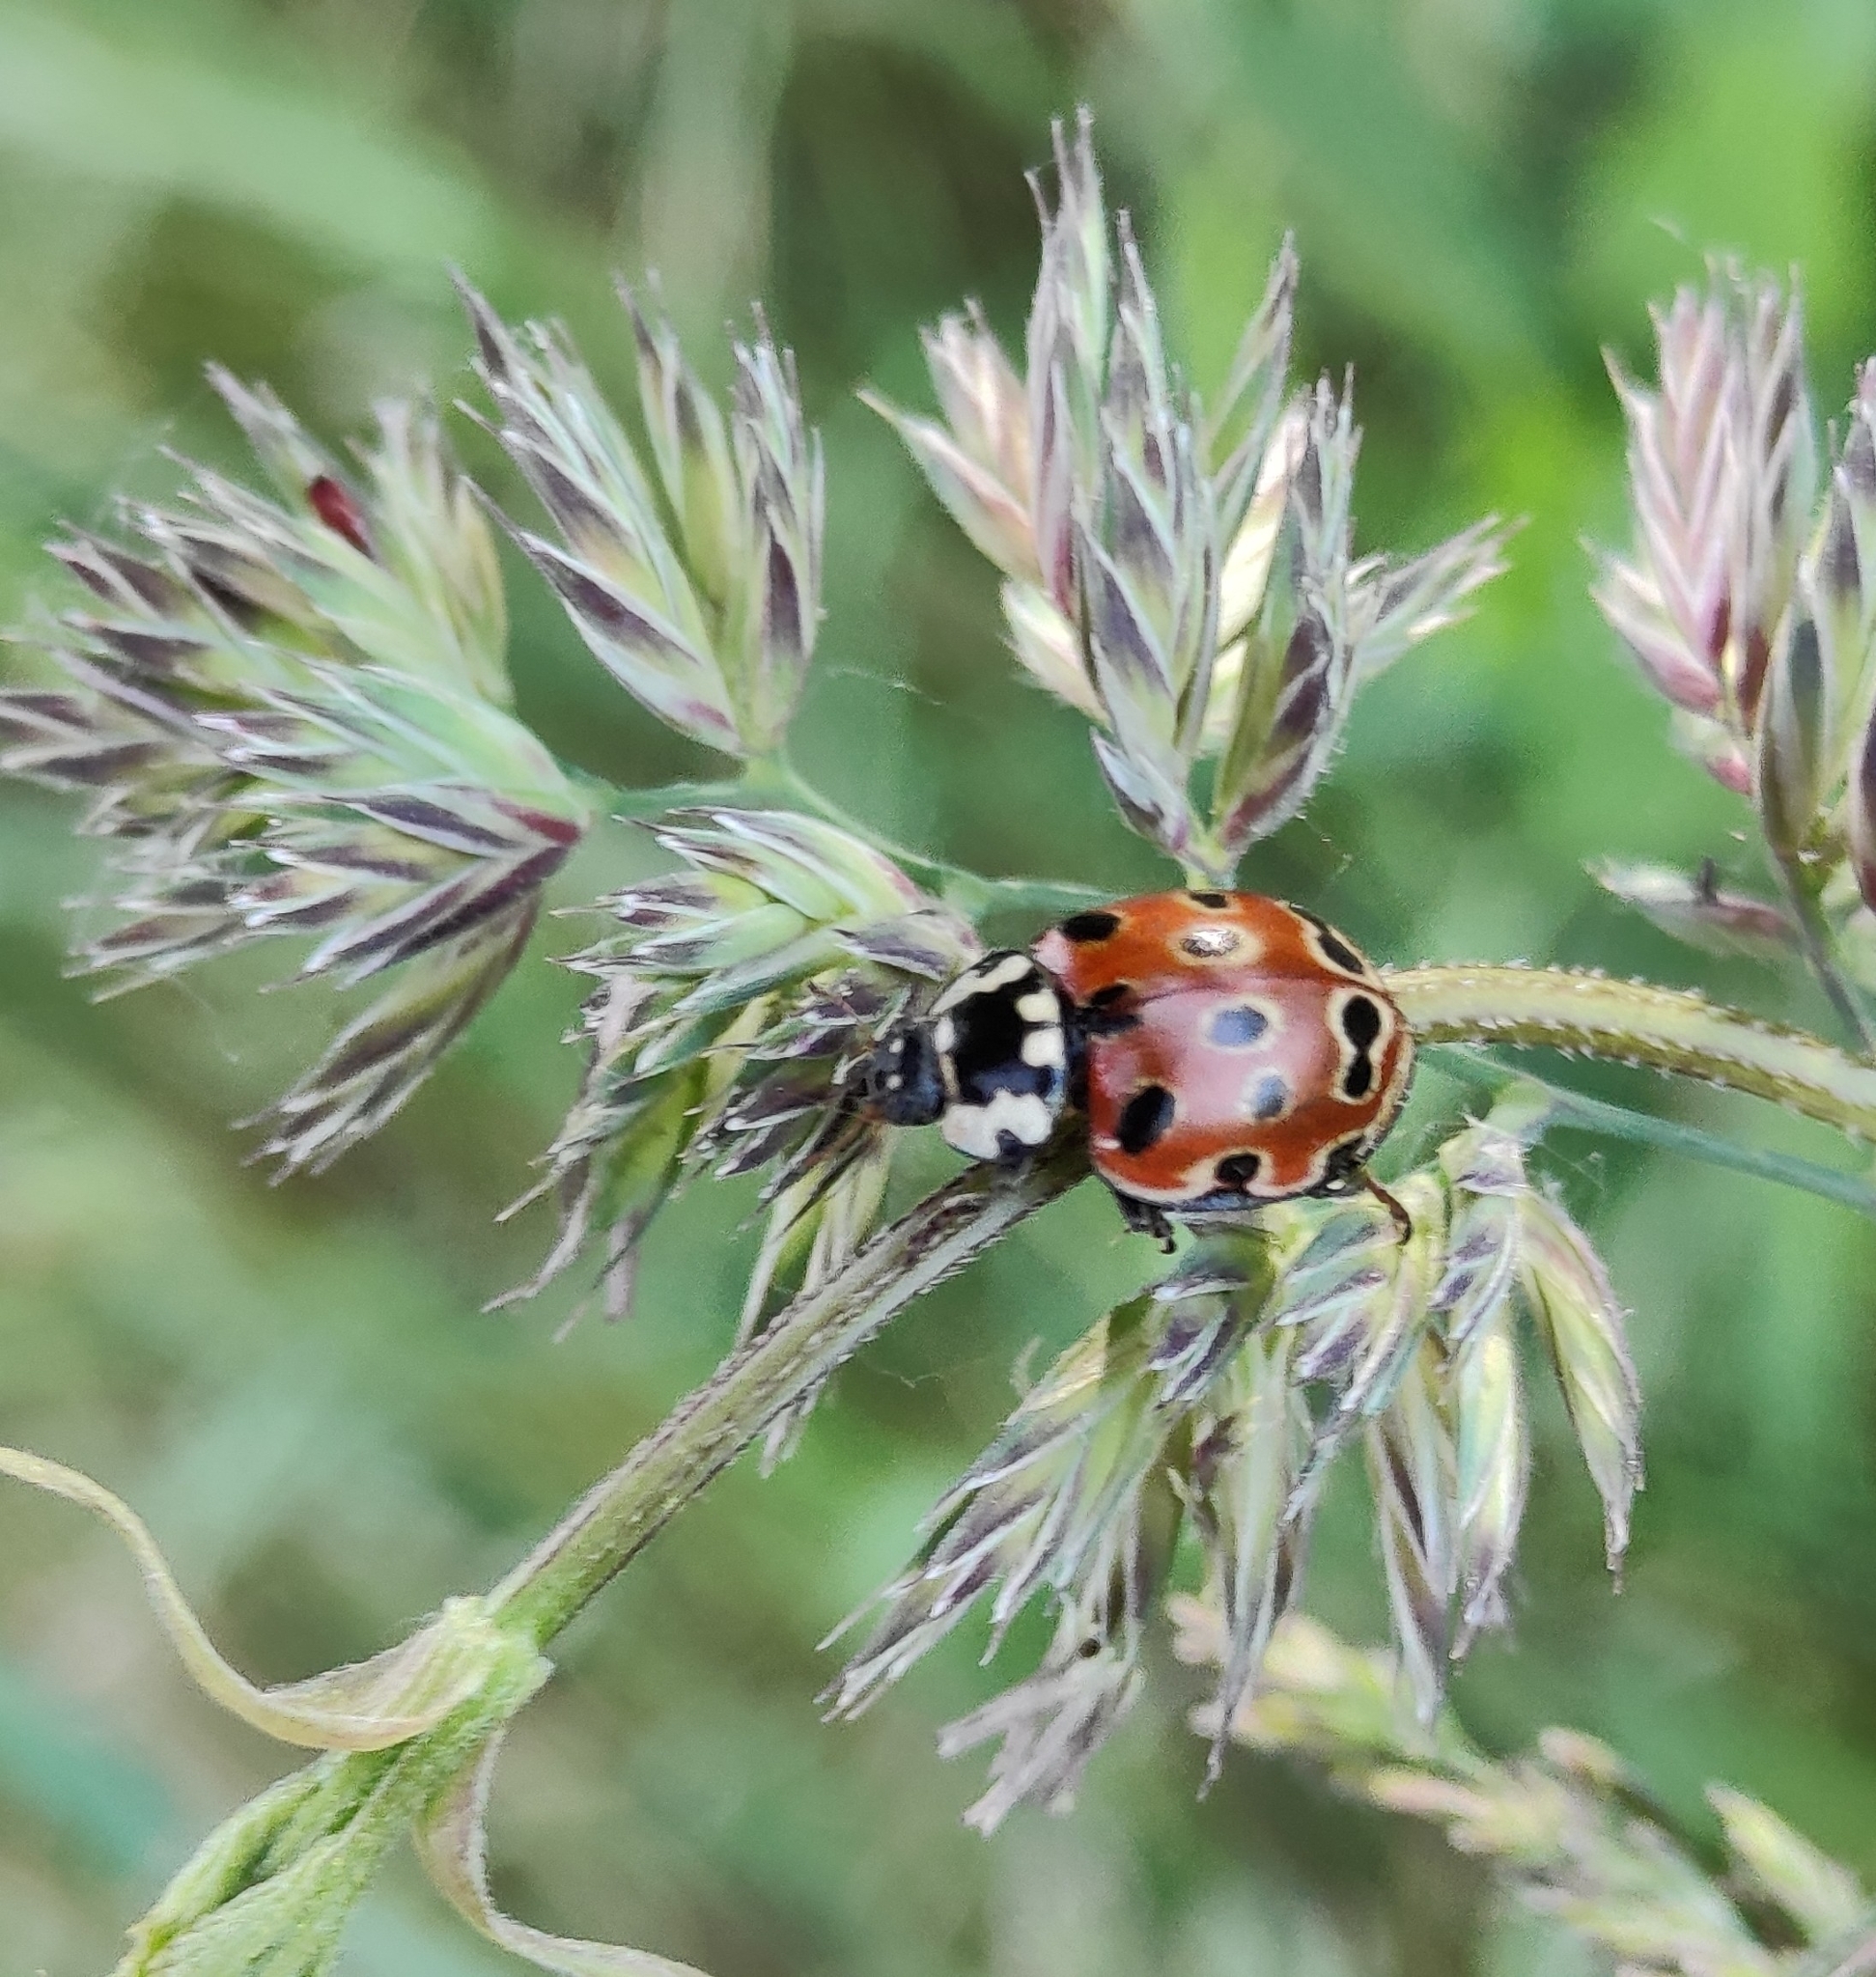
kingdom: Animalia
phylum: Arthropoda
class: Insecta
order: Coleoptera
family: Coccinellidae
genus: Anatis
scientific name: Anatis ocellata
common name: Eyed ladybird
